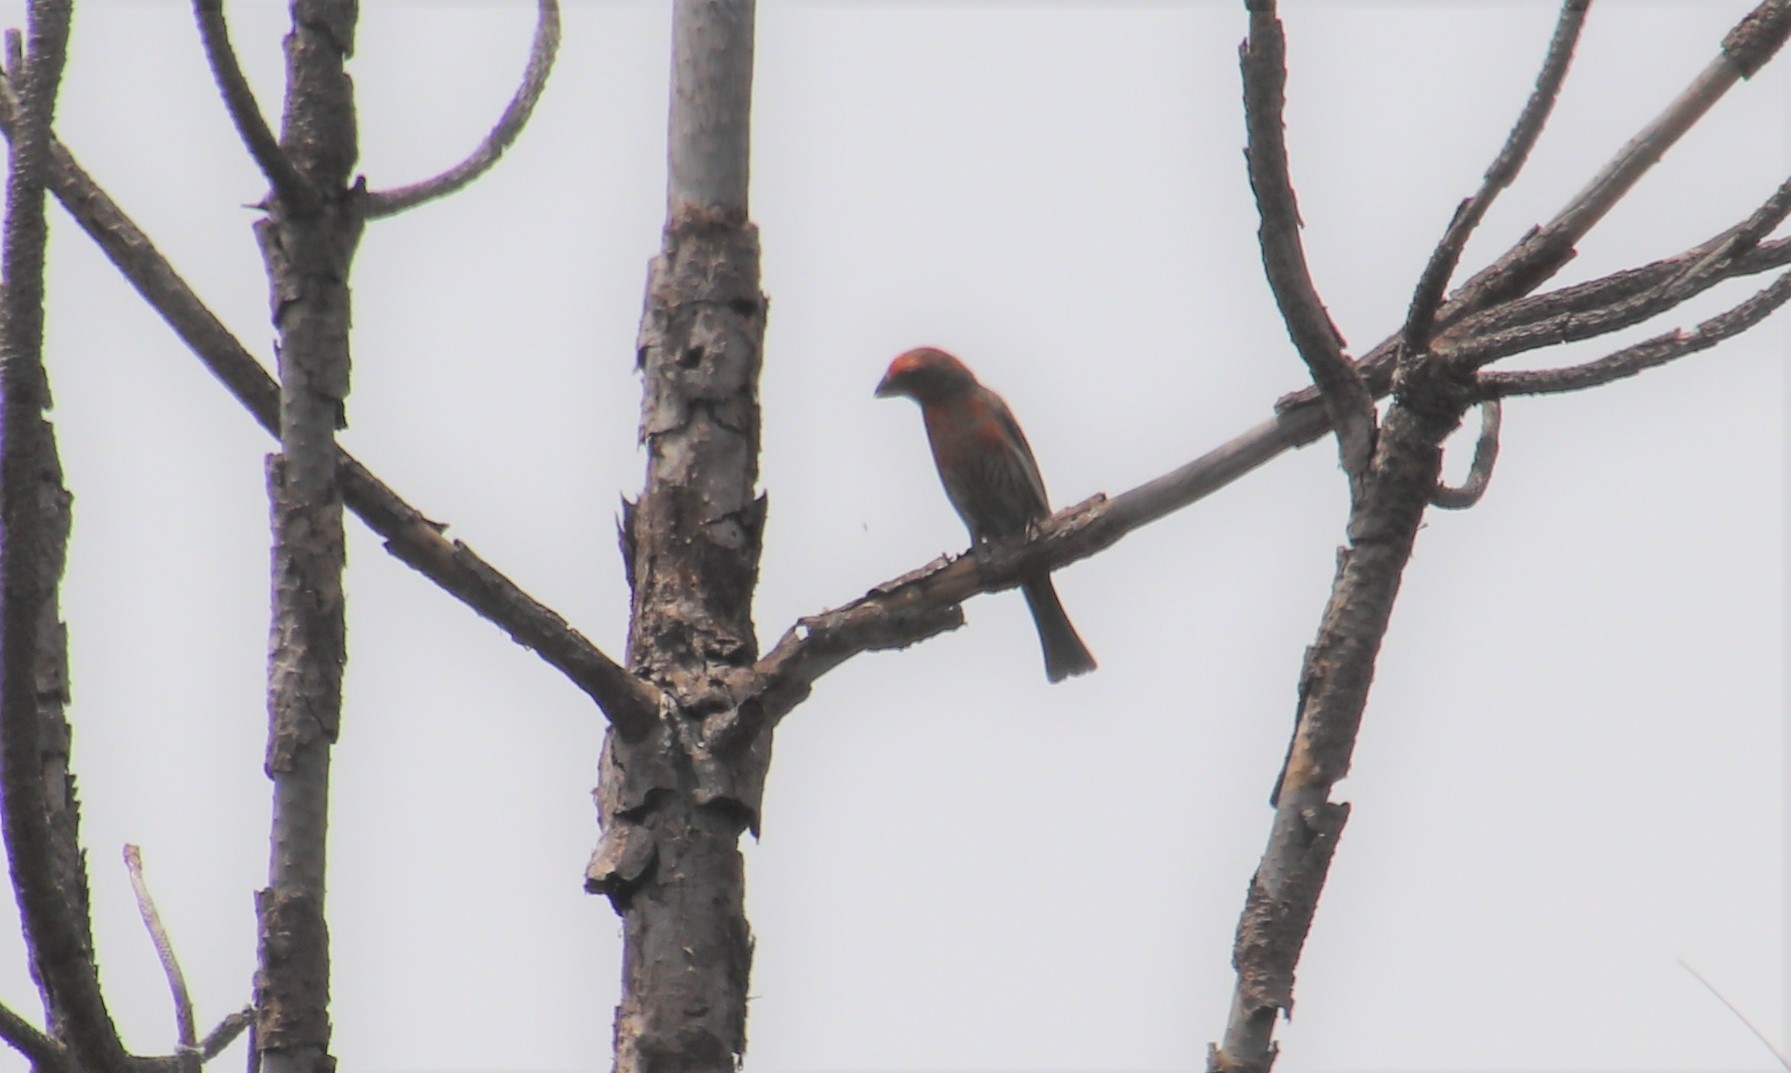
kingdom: Animalia
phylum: Chordata
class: Aves
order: Passeriformes
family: Fringillidae
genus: Haemorhous
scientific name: Haemorhous mexicanus
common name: House finch
